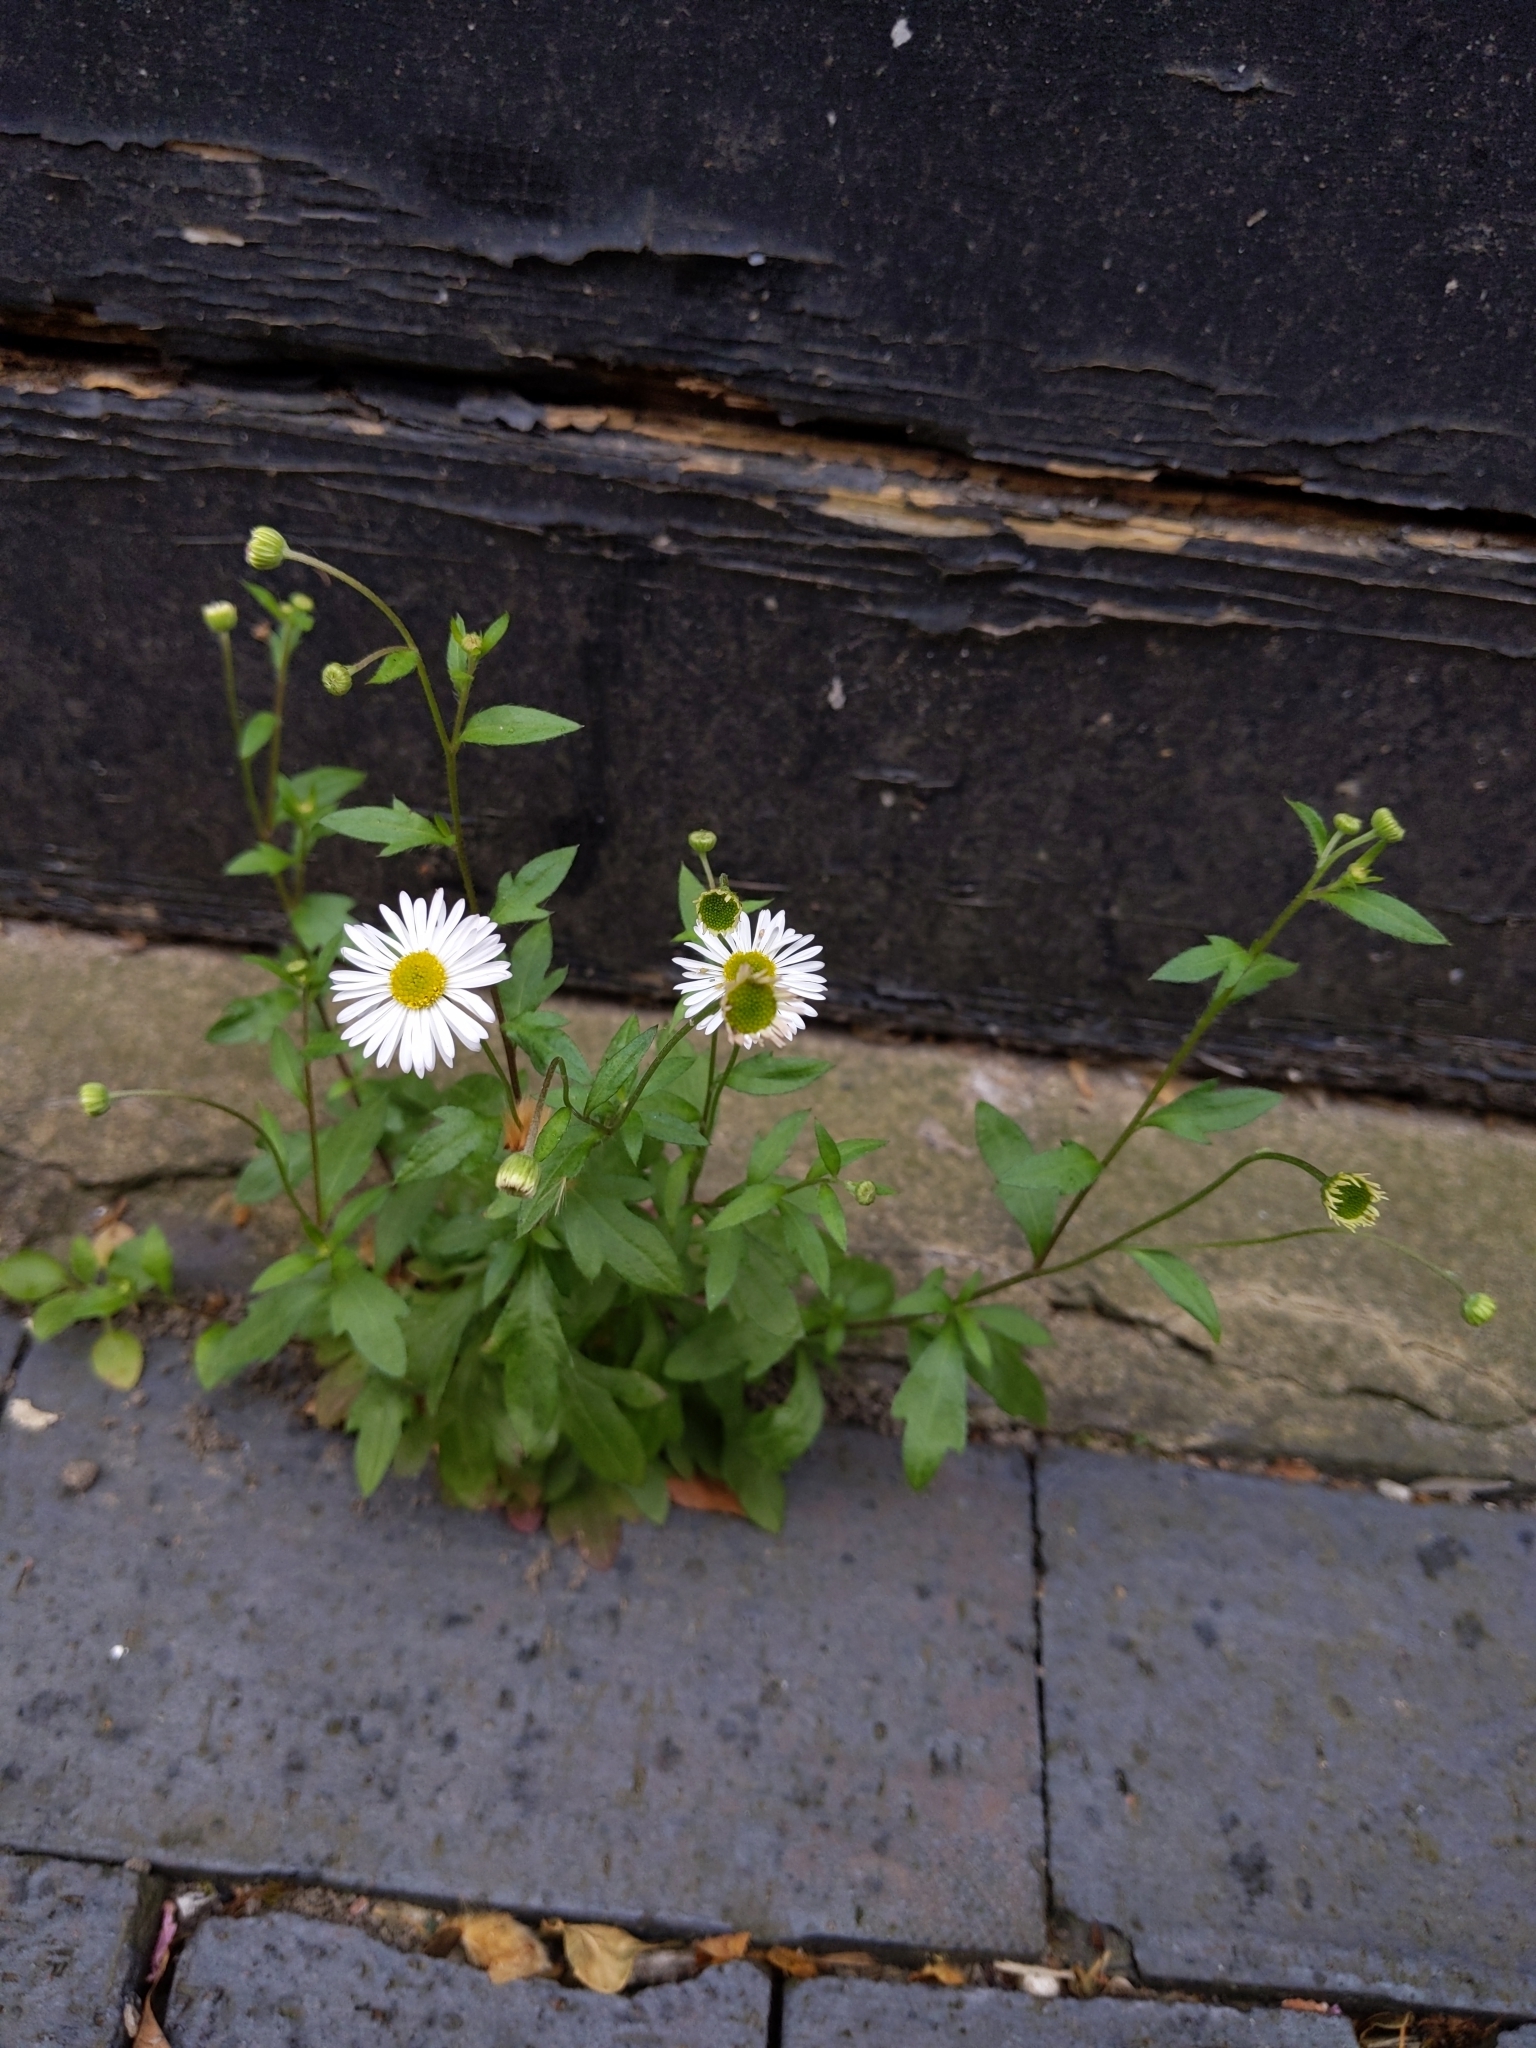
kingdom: Plantae
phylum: Tracheophyta
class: Magnoliopsida
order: Asterales
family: Asteraceae
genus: Erigeron
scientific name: Erigeron karvinskianus
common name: Mexican fleabane
